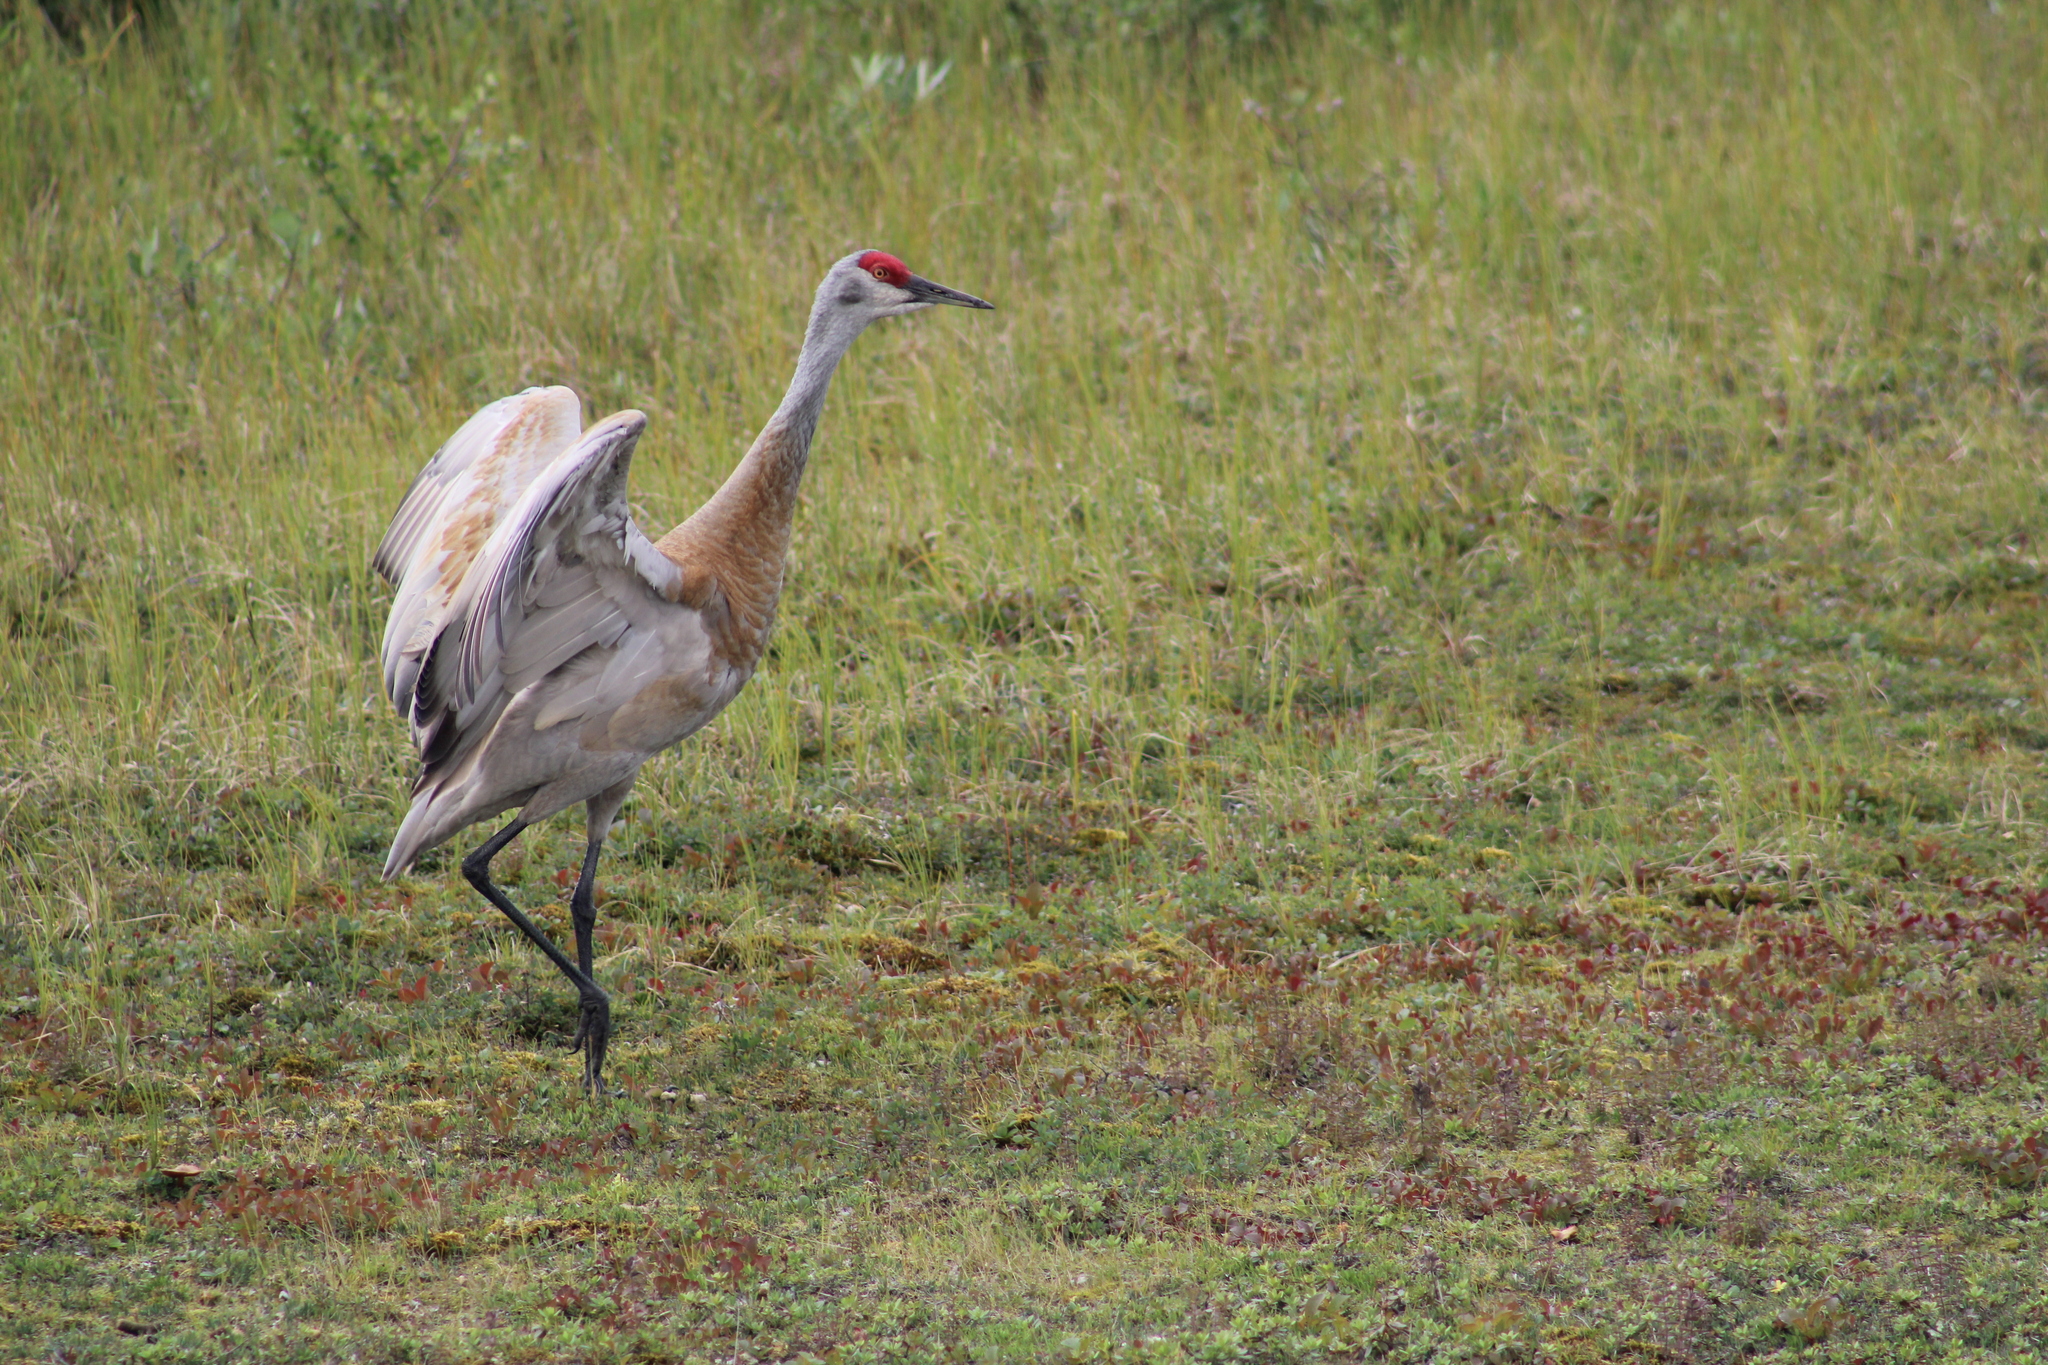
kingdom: Animalia
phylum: Chordata
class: Aves
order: Gruiformes
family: Gruidae
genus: Grus
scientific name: Grus canadensis
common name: Sandhill crane
